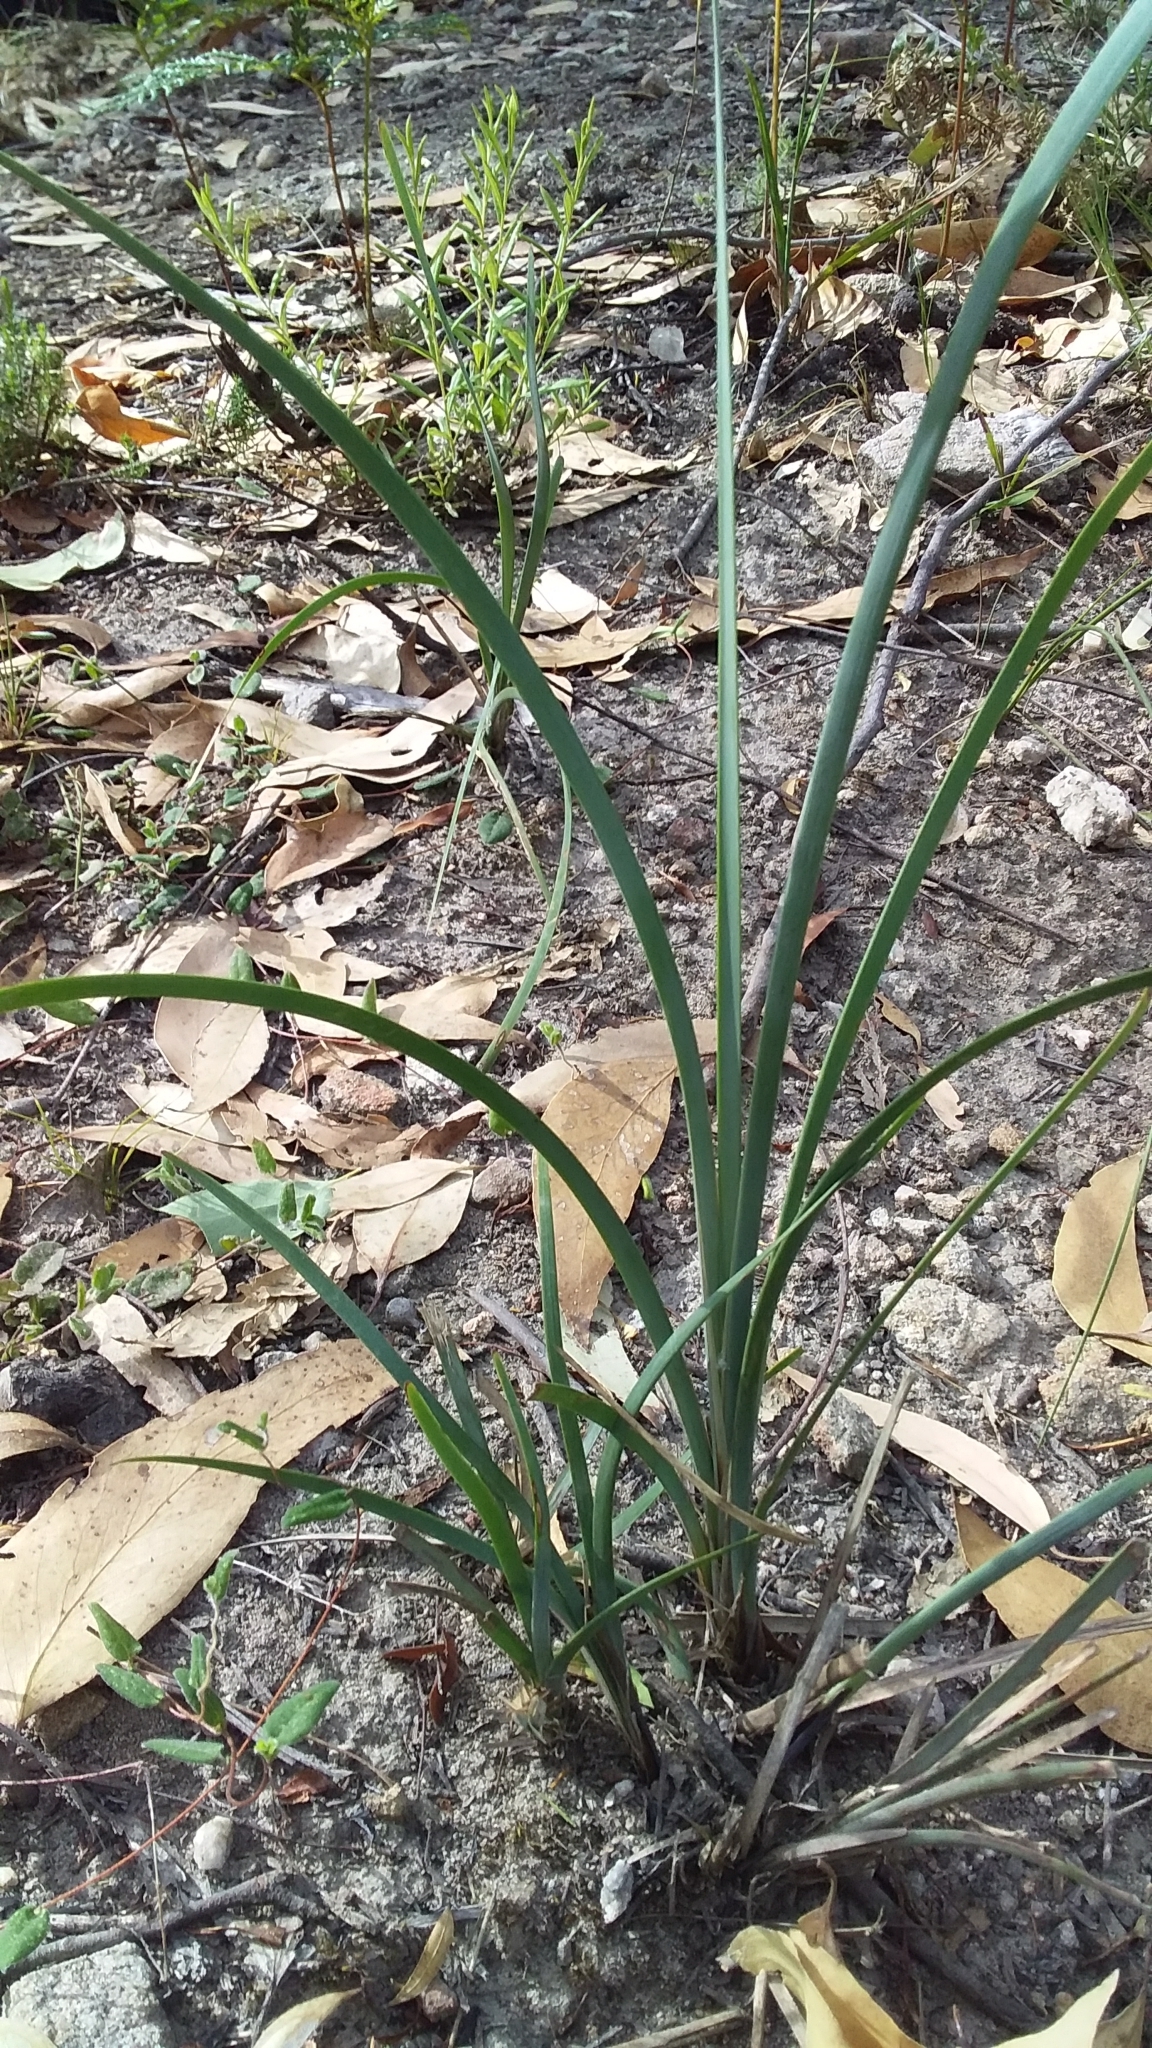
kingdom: Plantae
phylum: Tracheophyta
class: Liliopsida
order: Asparagales
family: Asparagaceae
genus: Lomandra
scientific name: Lomandra multiflora
